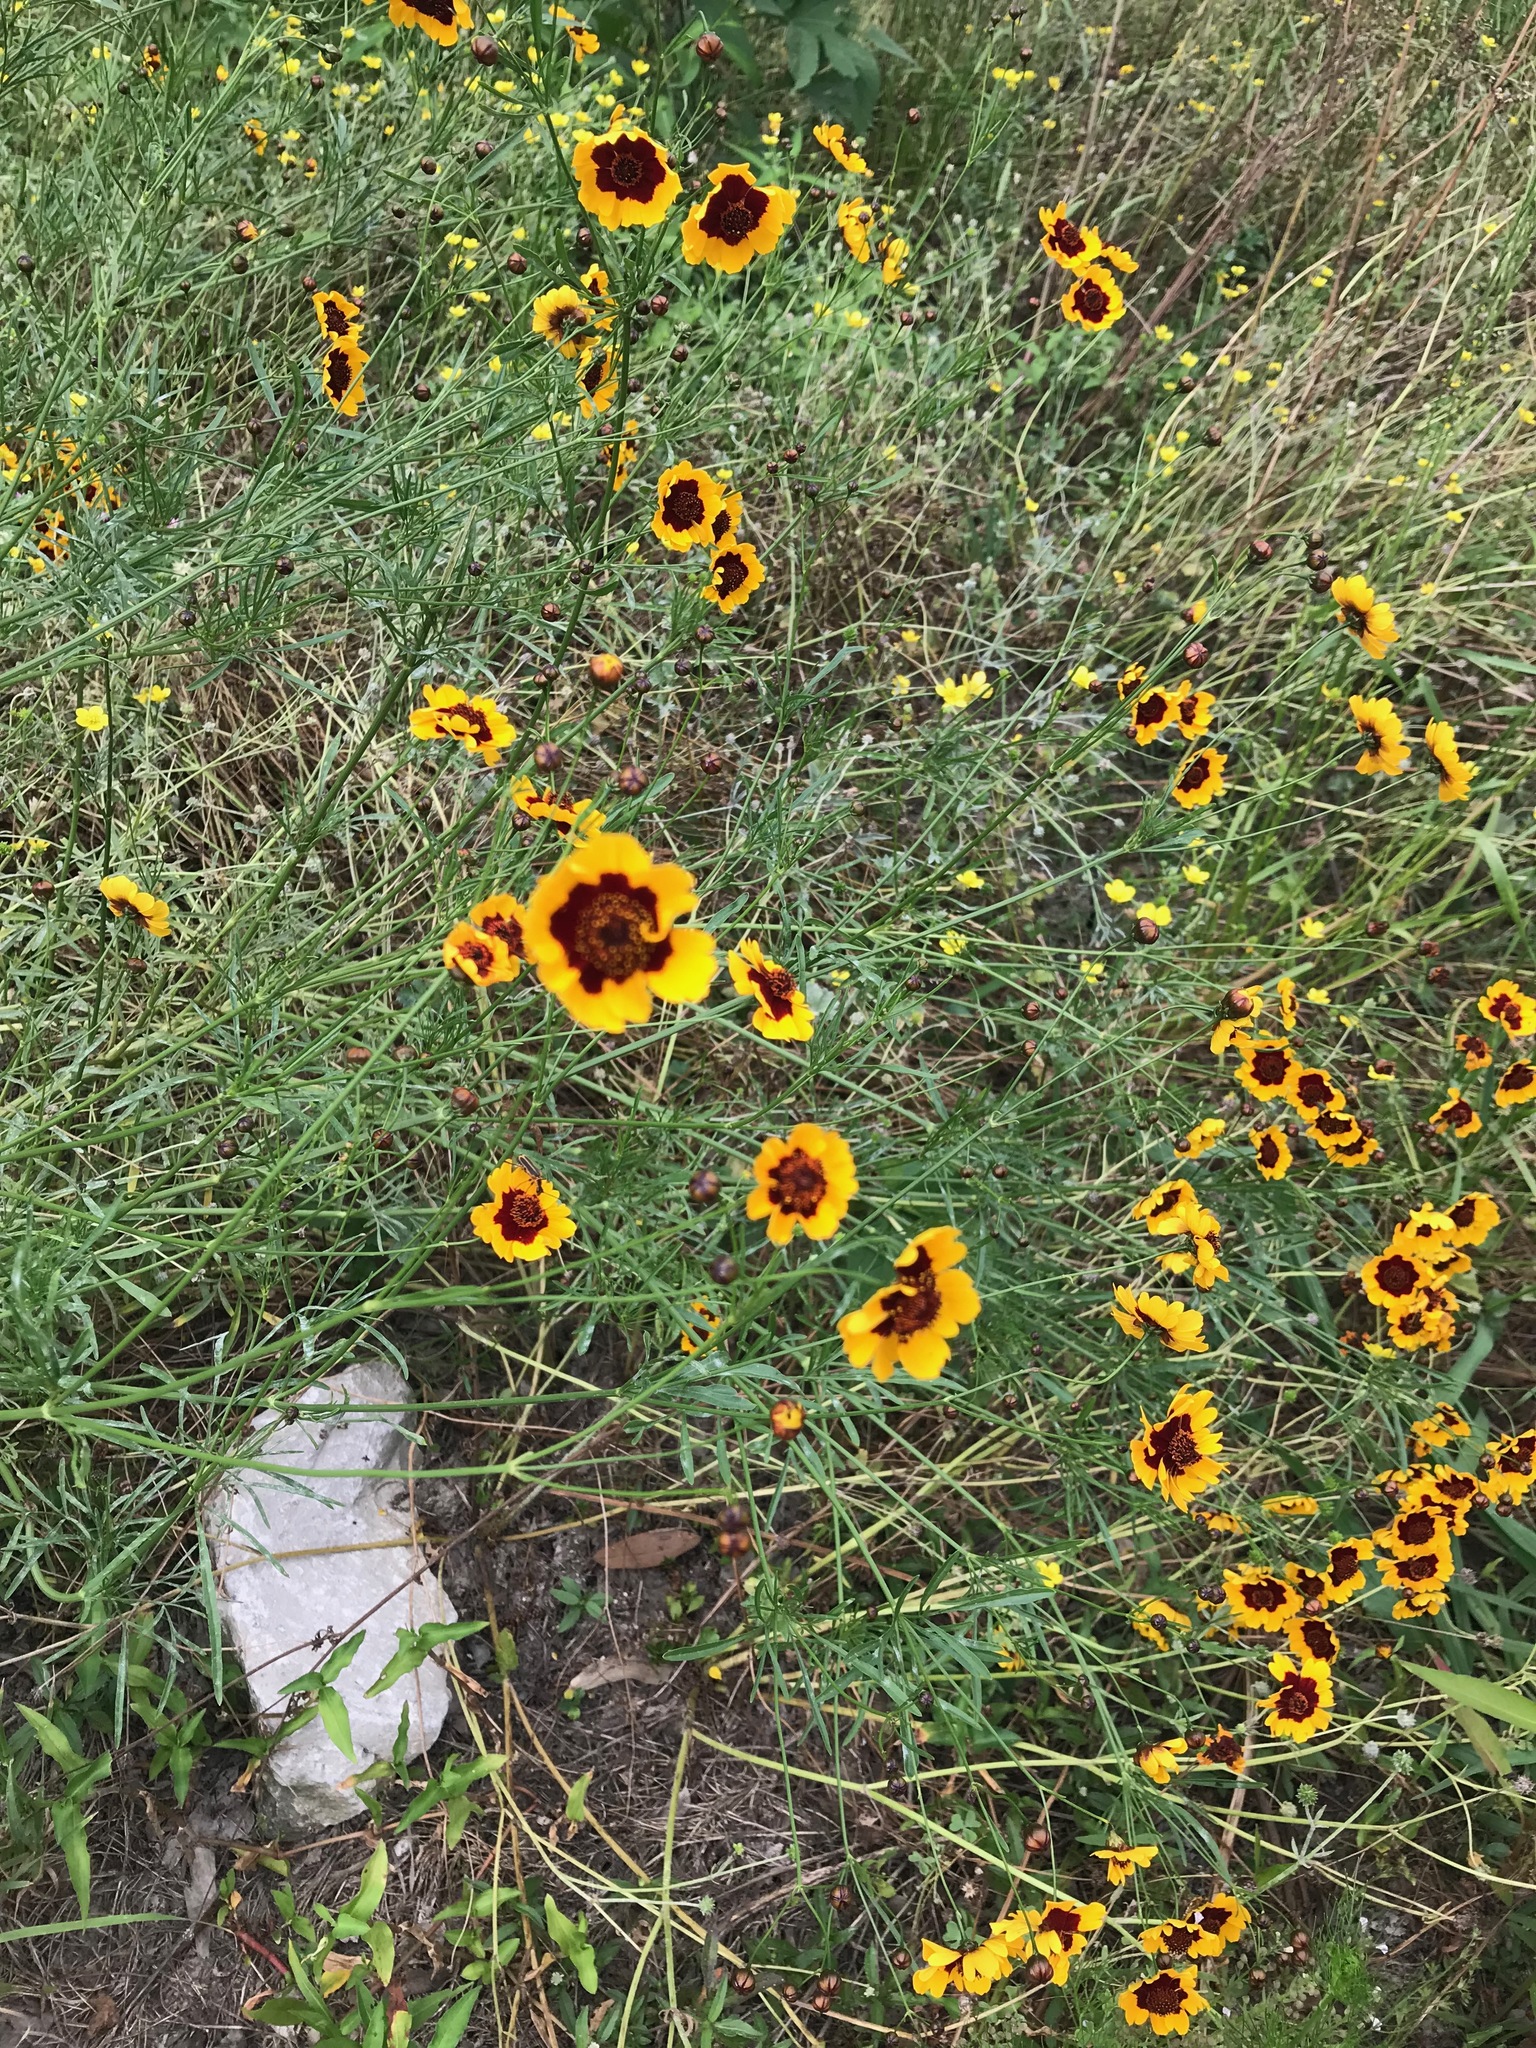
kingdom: Plantae
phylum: Tracheophyta
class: Magnoliopsida
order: Asterales
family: Asteraceae
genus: Coreopsis
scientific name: Coreopsis tinctoria
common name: Garden tickseed
